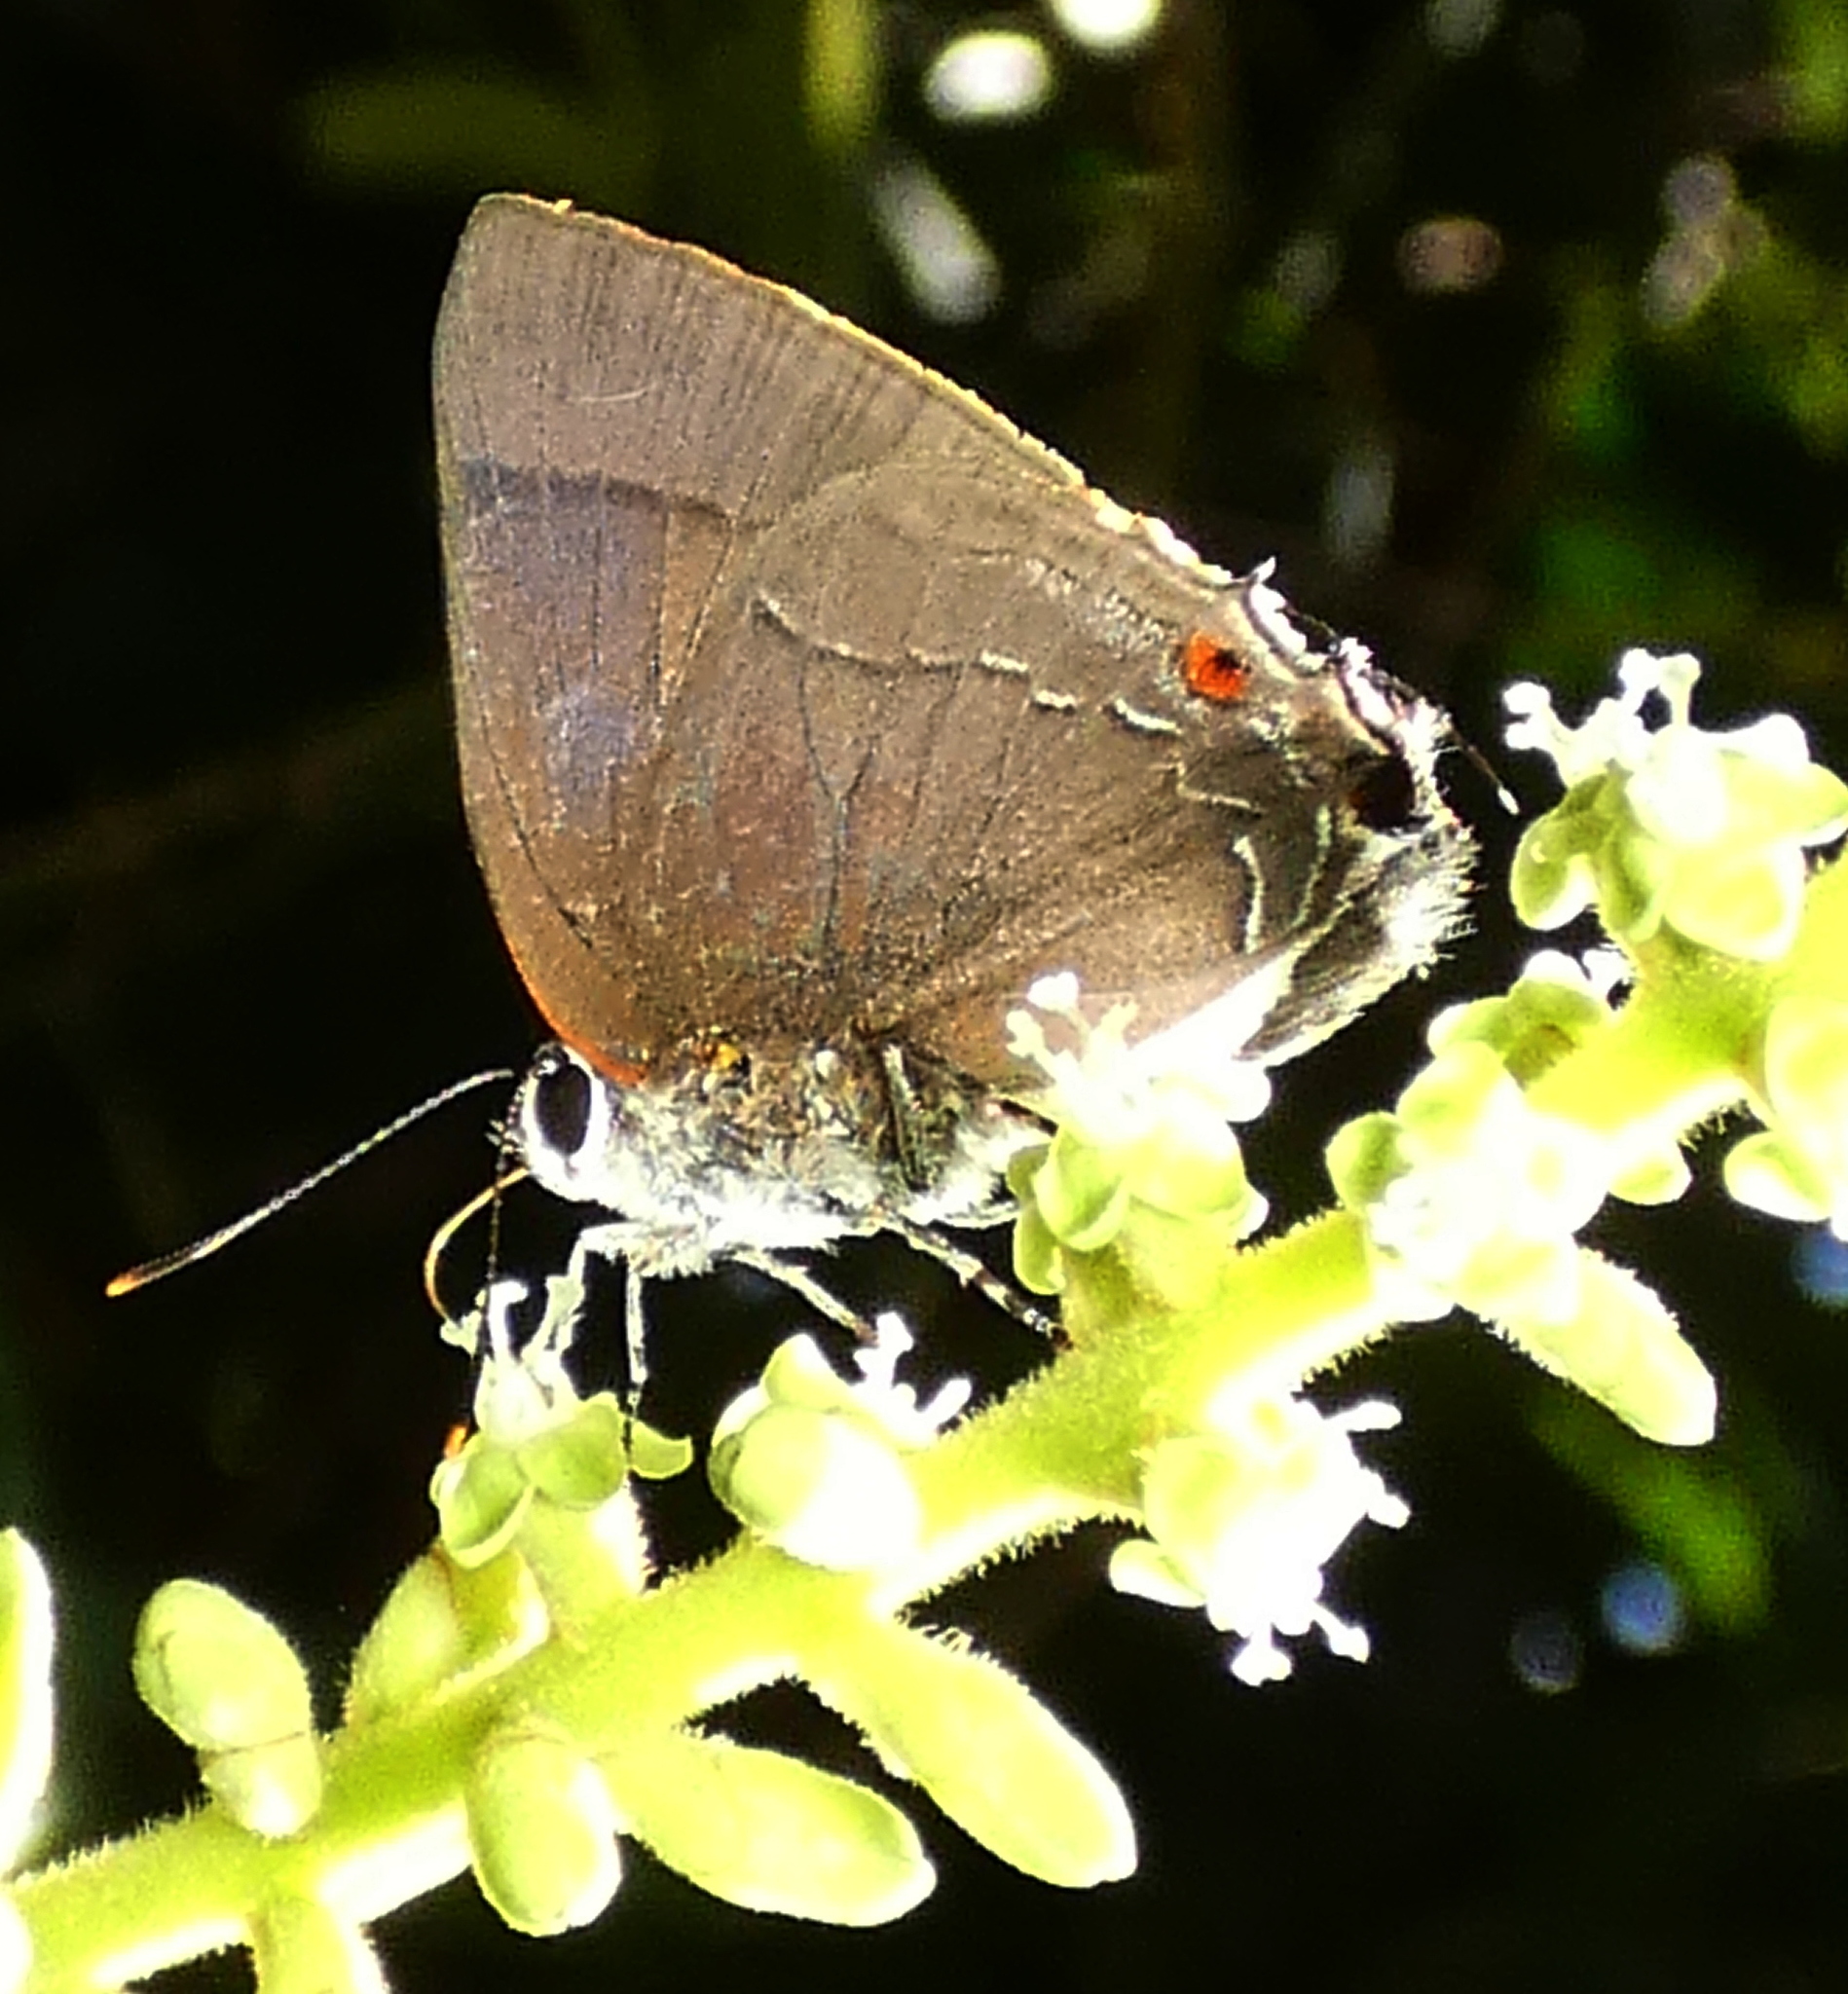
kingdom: Animalia
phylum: Arthropoda
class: Insecta
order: Lepidoptera
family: Lycaenidae
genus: Thecla
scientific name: Thecla spurina
